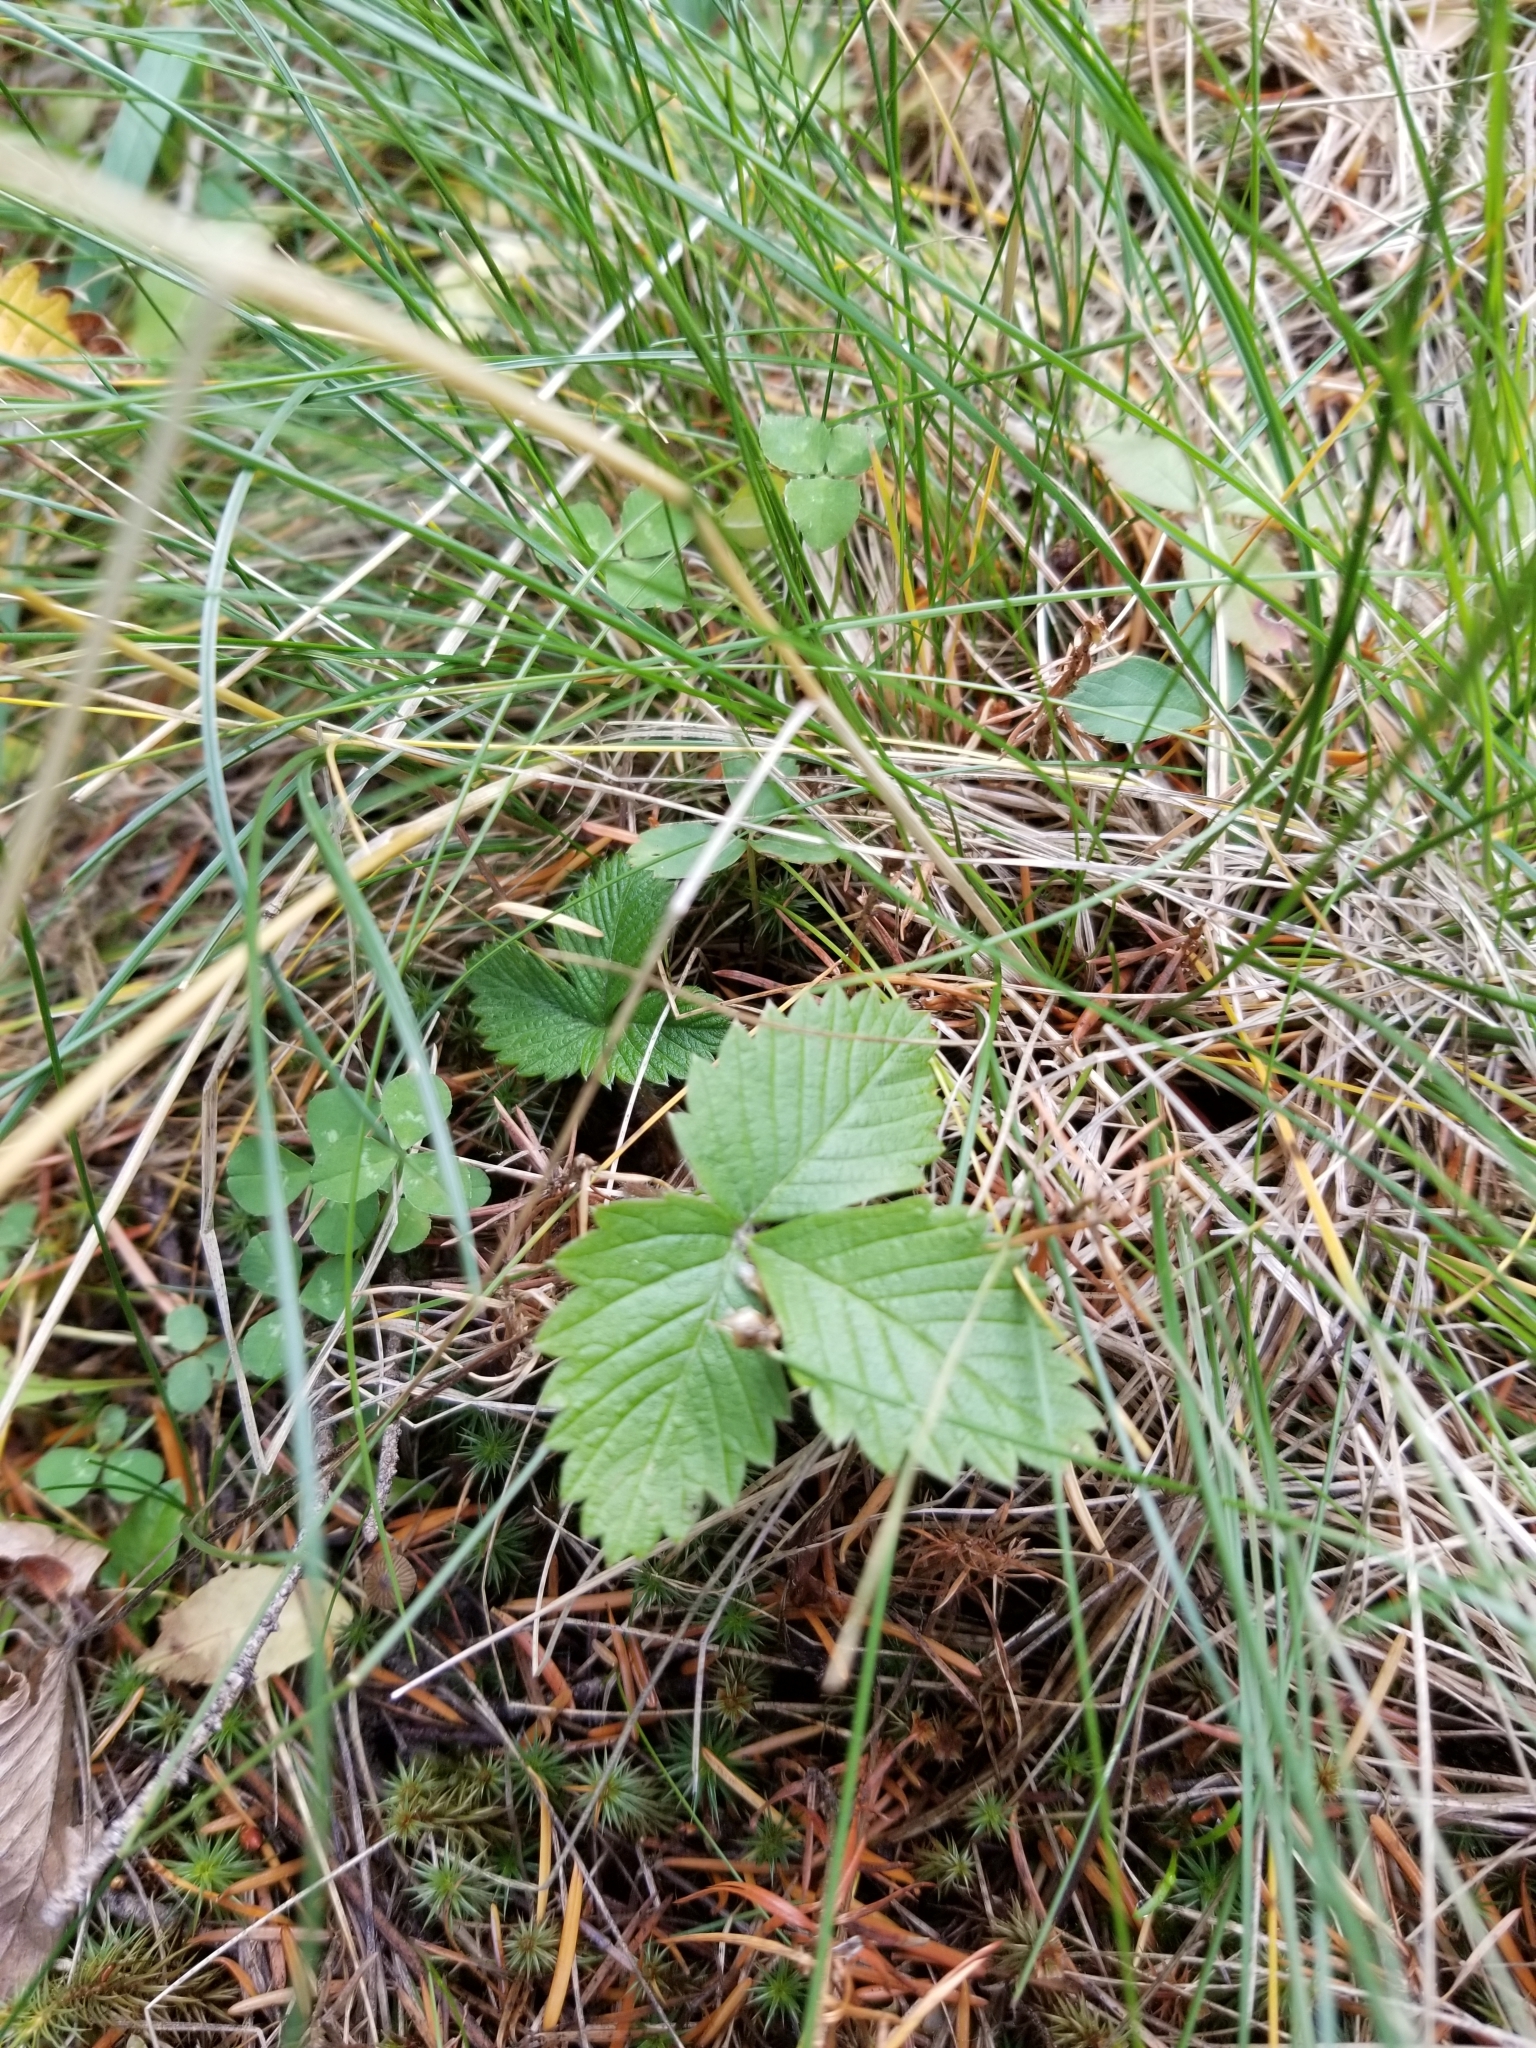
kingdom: Plantae
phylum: Tracheophyta
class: Magnoliopsida
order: Rosales
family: Rosaceae
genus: Fragaria
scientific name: Fragaria vesca
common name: Wild strawberry
